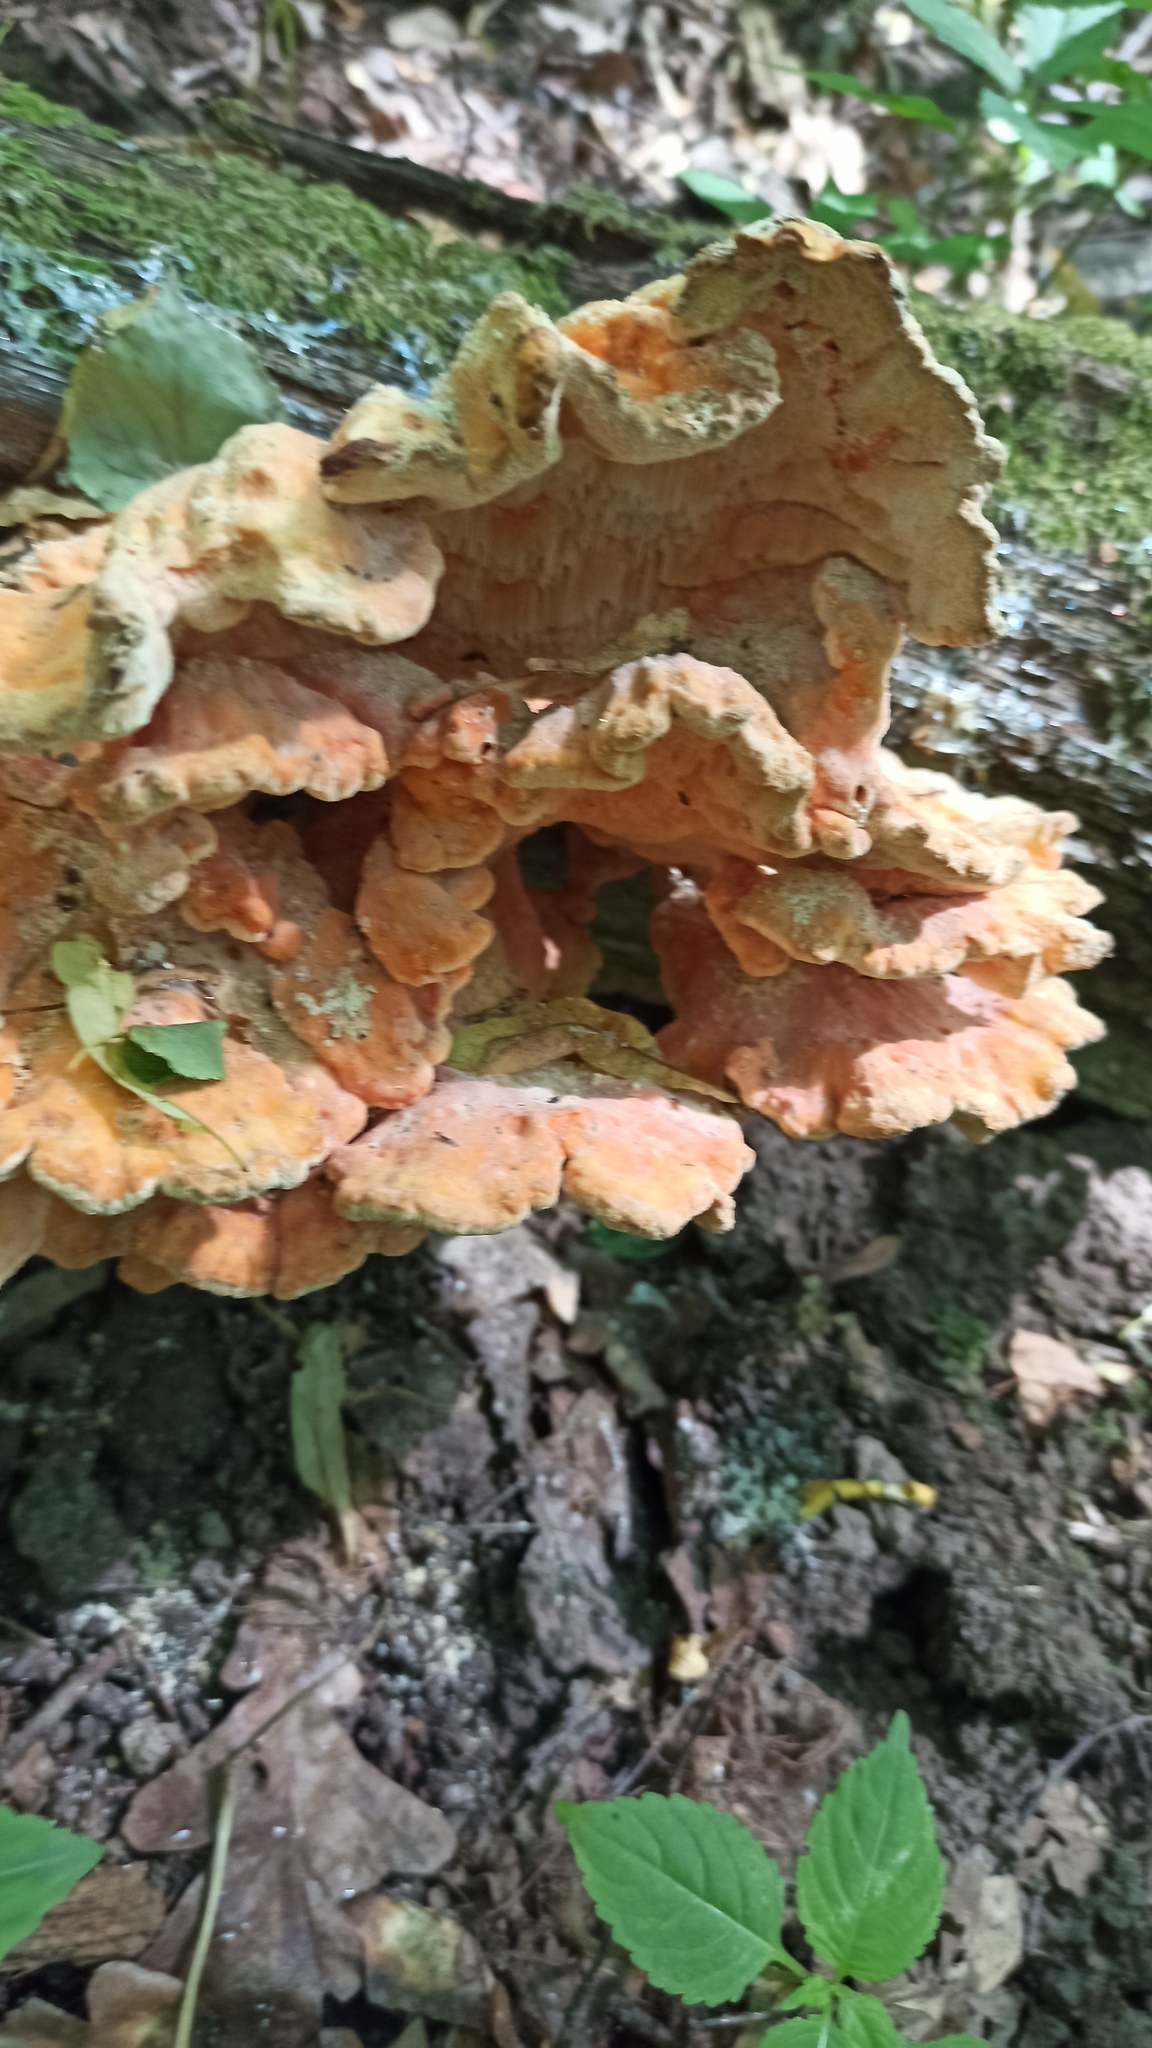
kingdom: Fungi
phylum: Basidiomycota
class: Agaricomycetes
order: Polyporales
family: Laetiporaceae
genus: Laetiporus
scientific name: Laetiporus sulphureus
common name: Chicken of the woods
